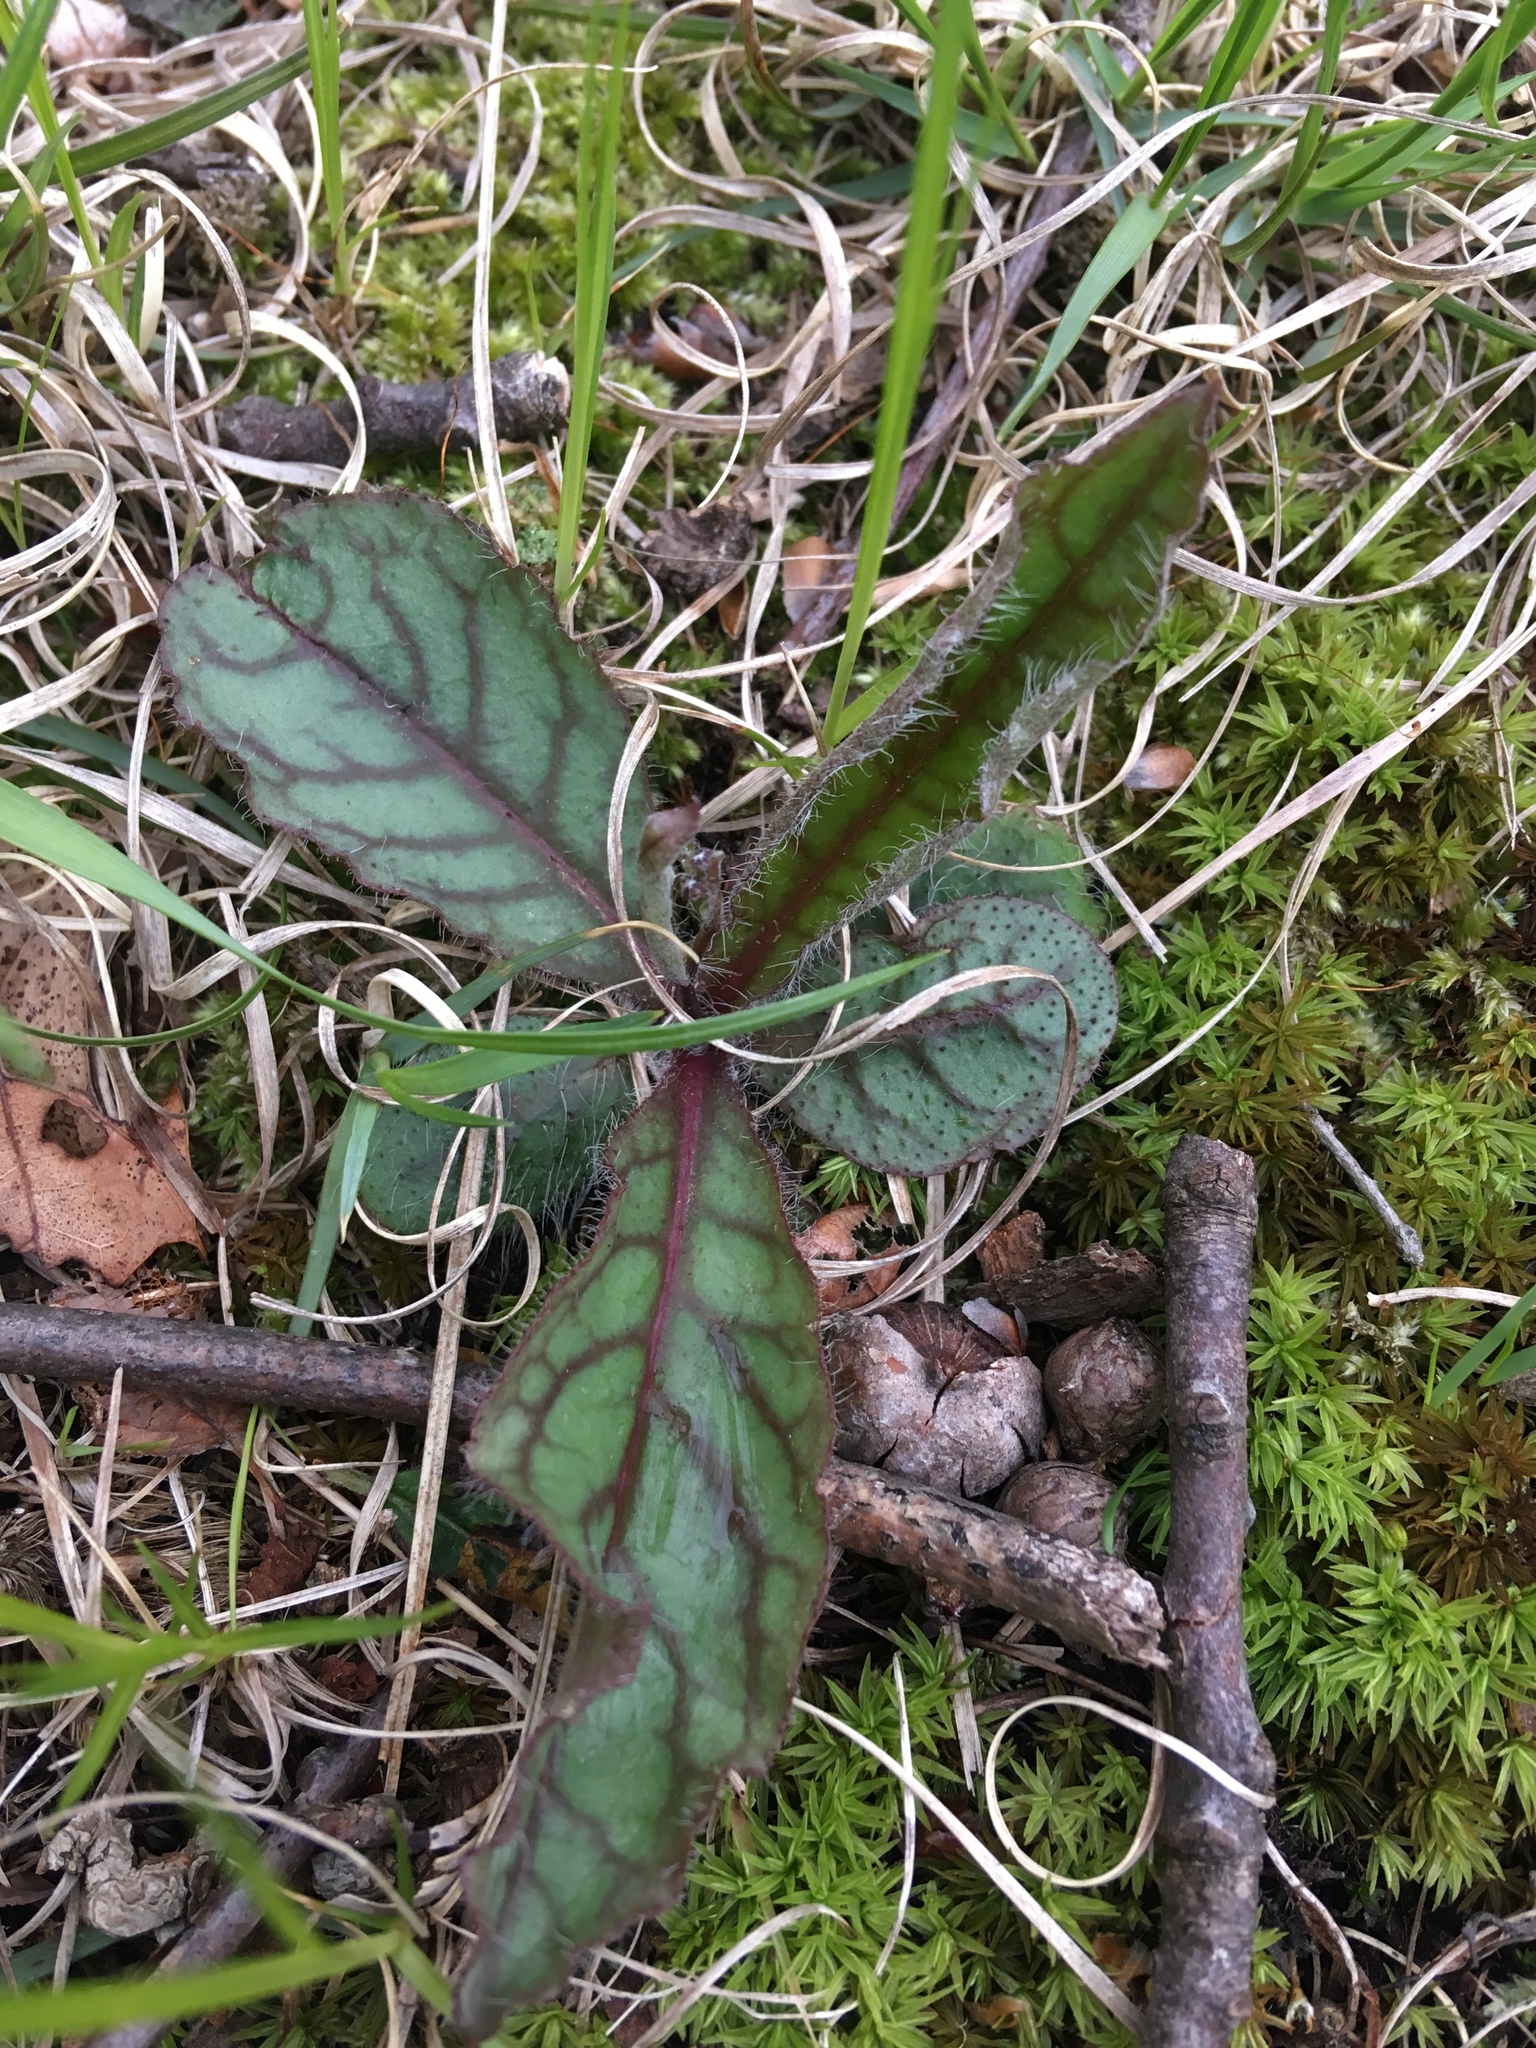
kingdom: Plantae
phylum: Tracheophyta
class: Magnoliopsida
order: Asterales
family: Asteraceae
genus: Hieracium
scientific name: Hieracium venosum
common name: Rattlesnake hawkweed
